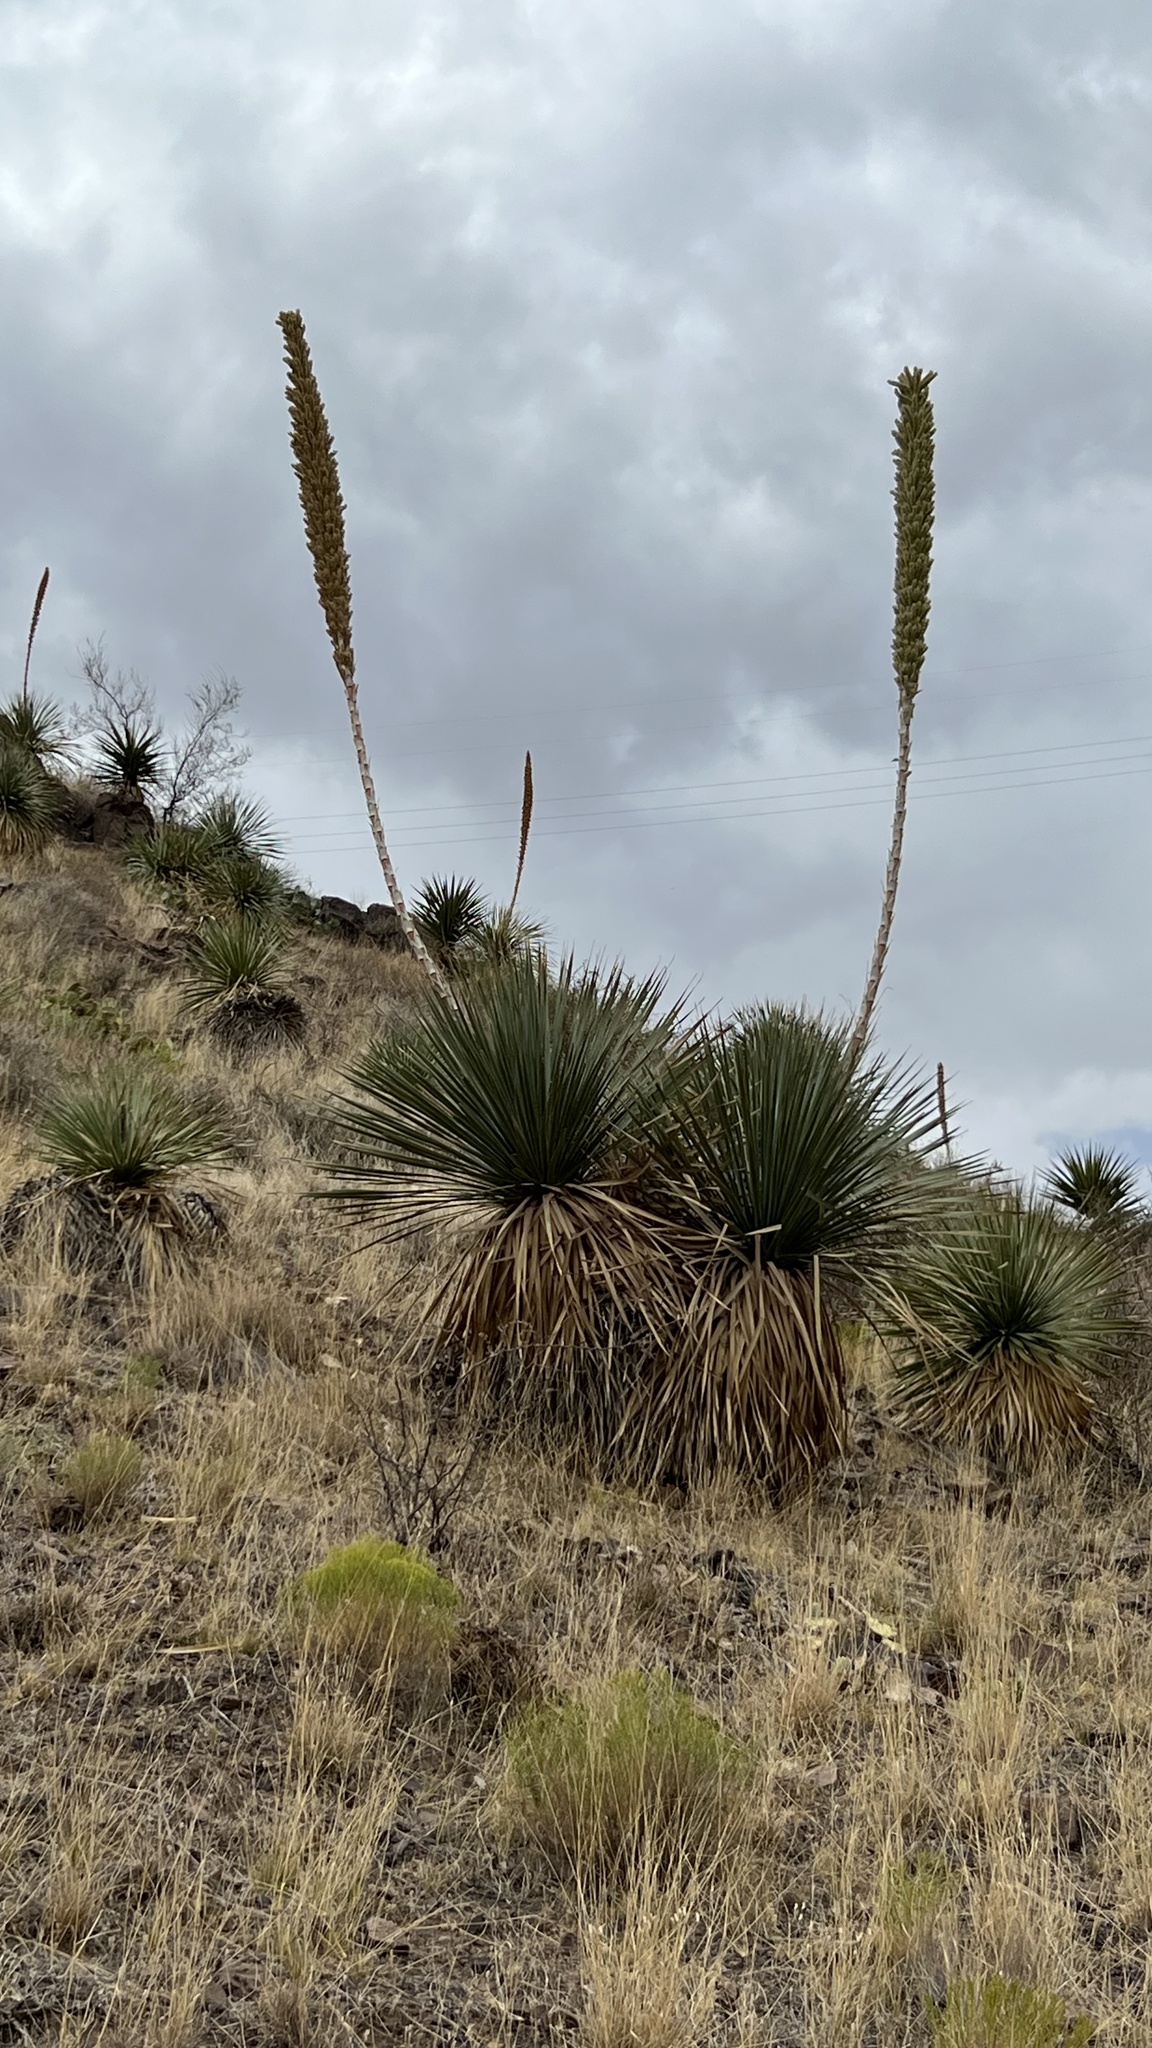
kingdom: Plantae
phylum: Tracheophyta
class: Liliopsida
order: Asparagales
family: Asparagaceae
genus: Dasylirion
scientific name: Dasylirion wheeleri
